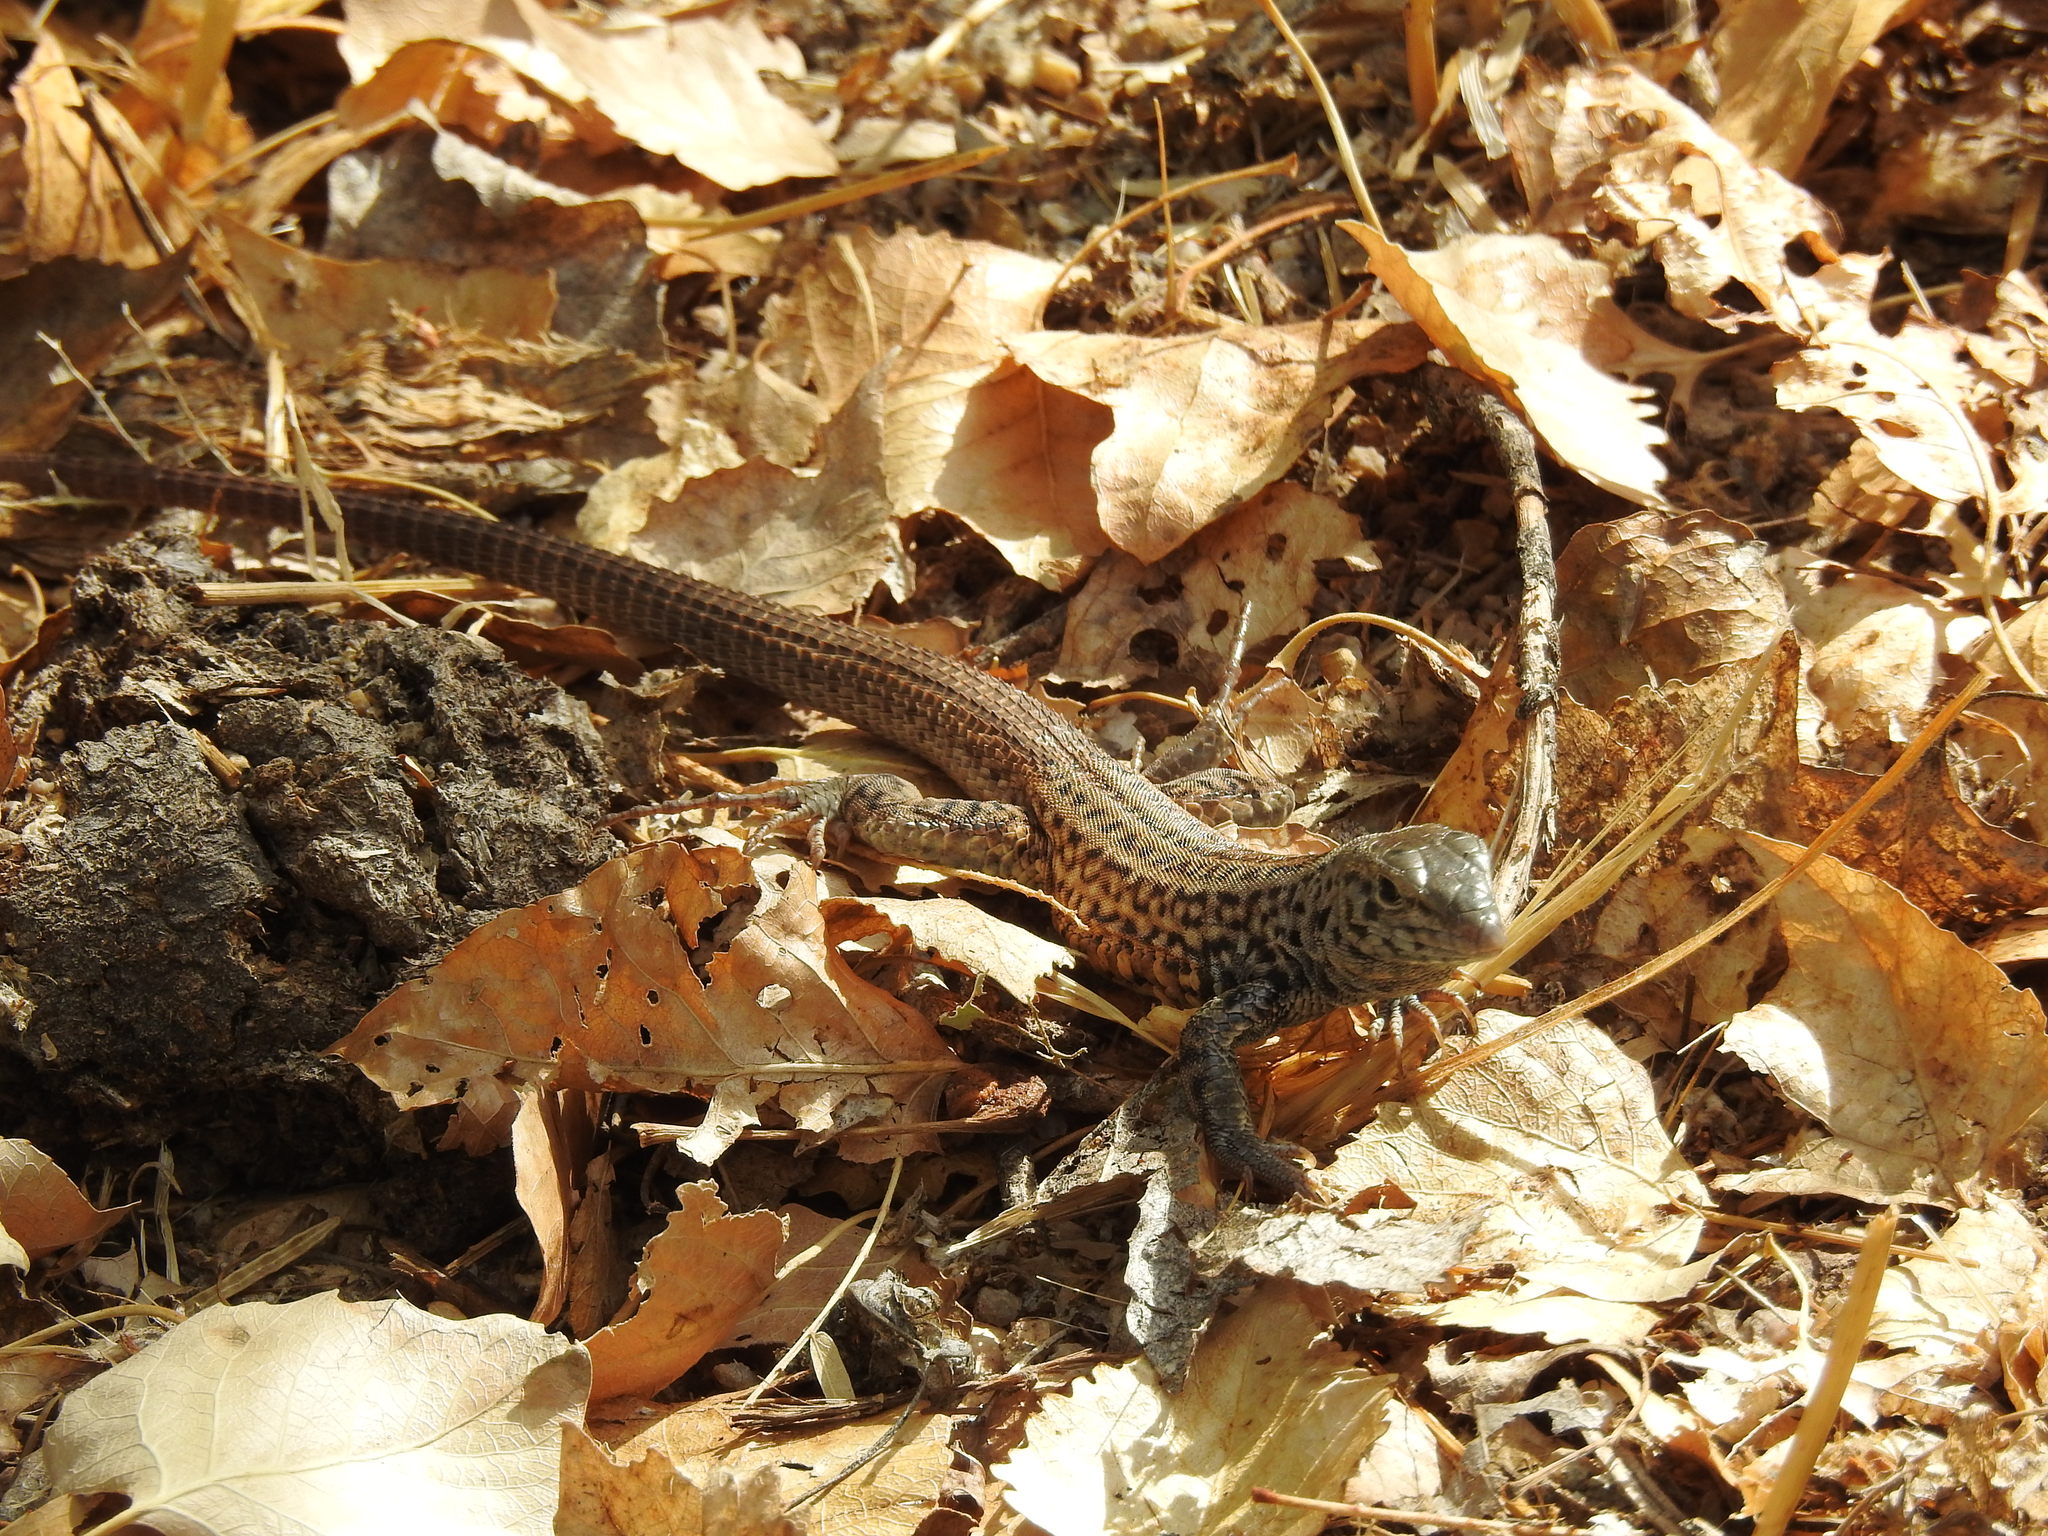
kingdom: Animalia
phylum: Chordata
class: Squamata
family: Teiidae
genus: Aspidoscelis
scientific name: Aspidoscelis tigris
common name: Tiger whiptail
